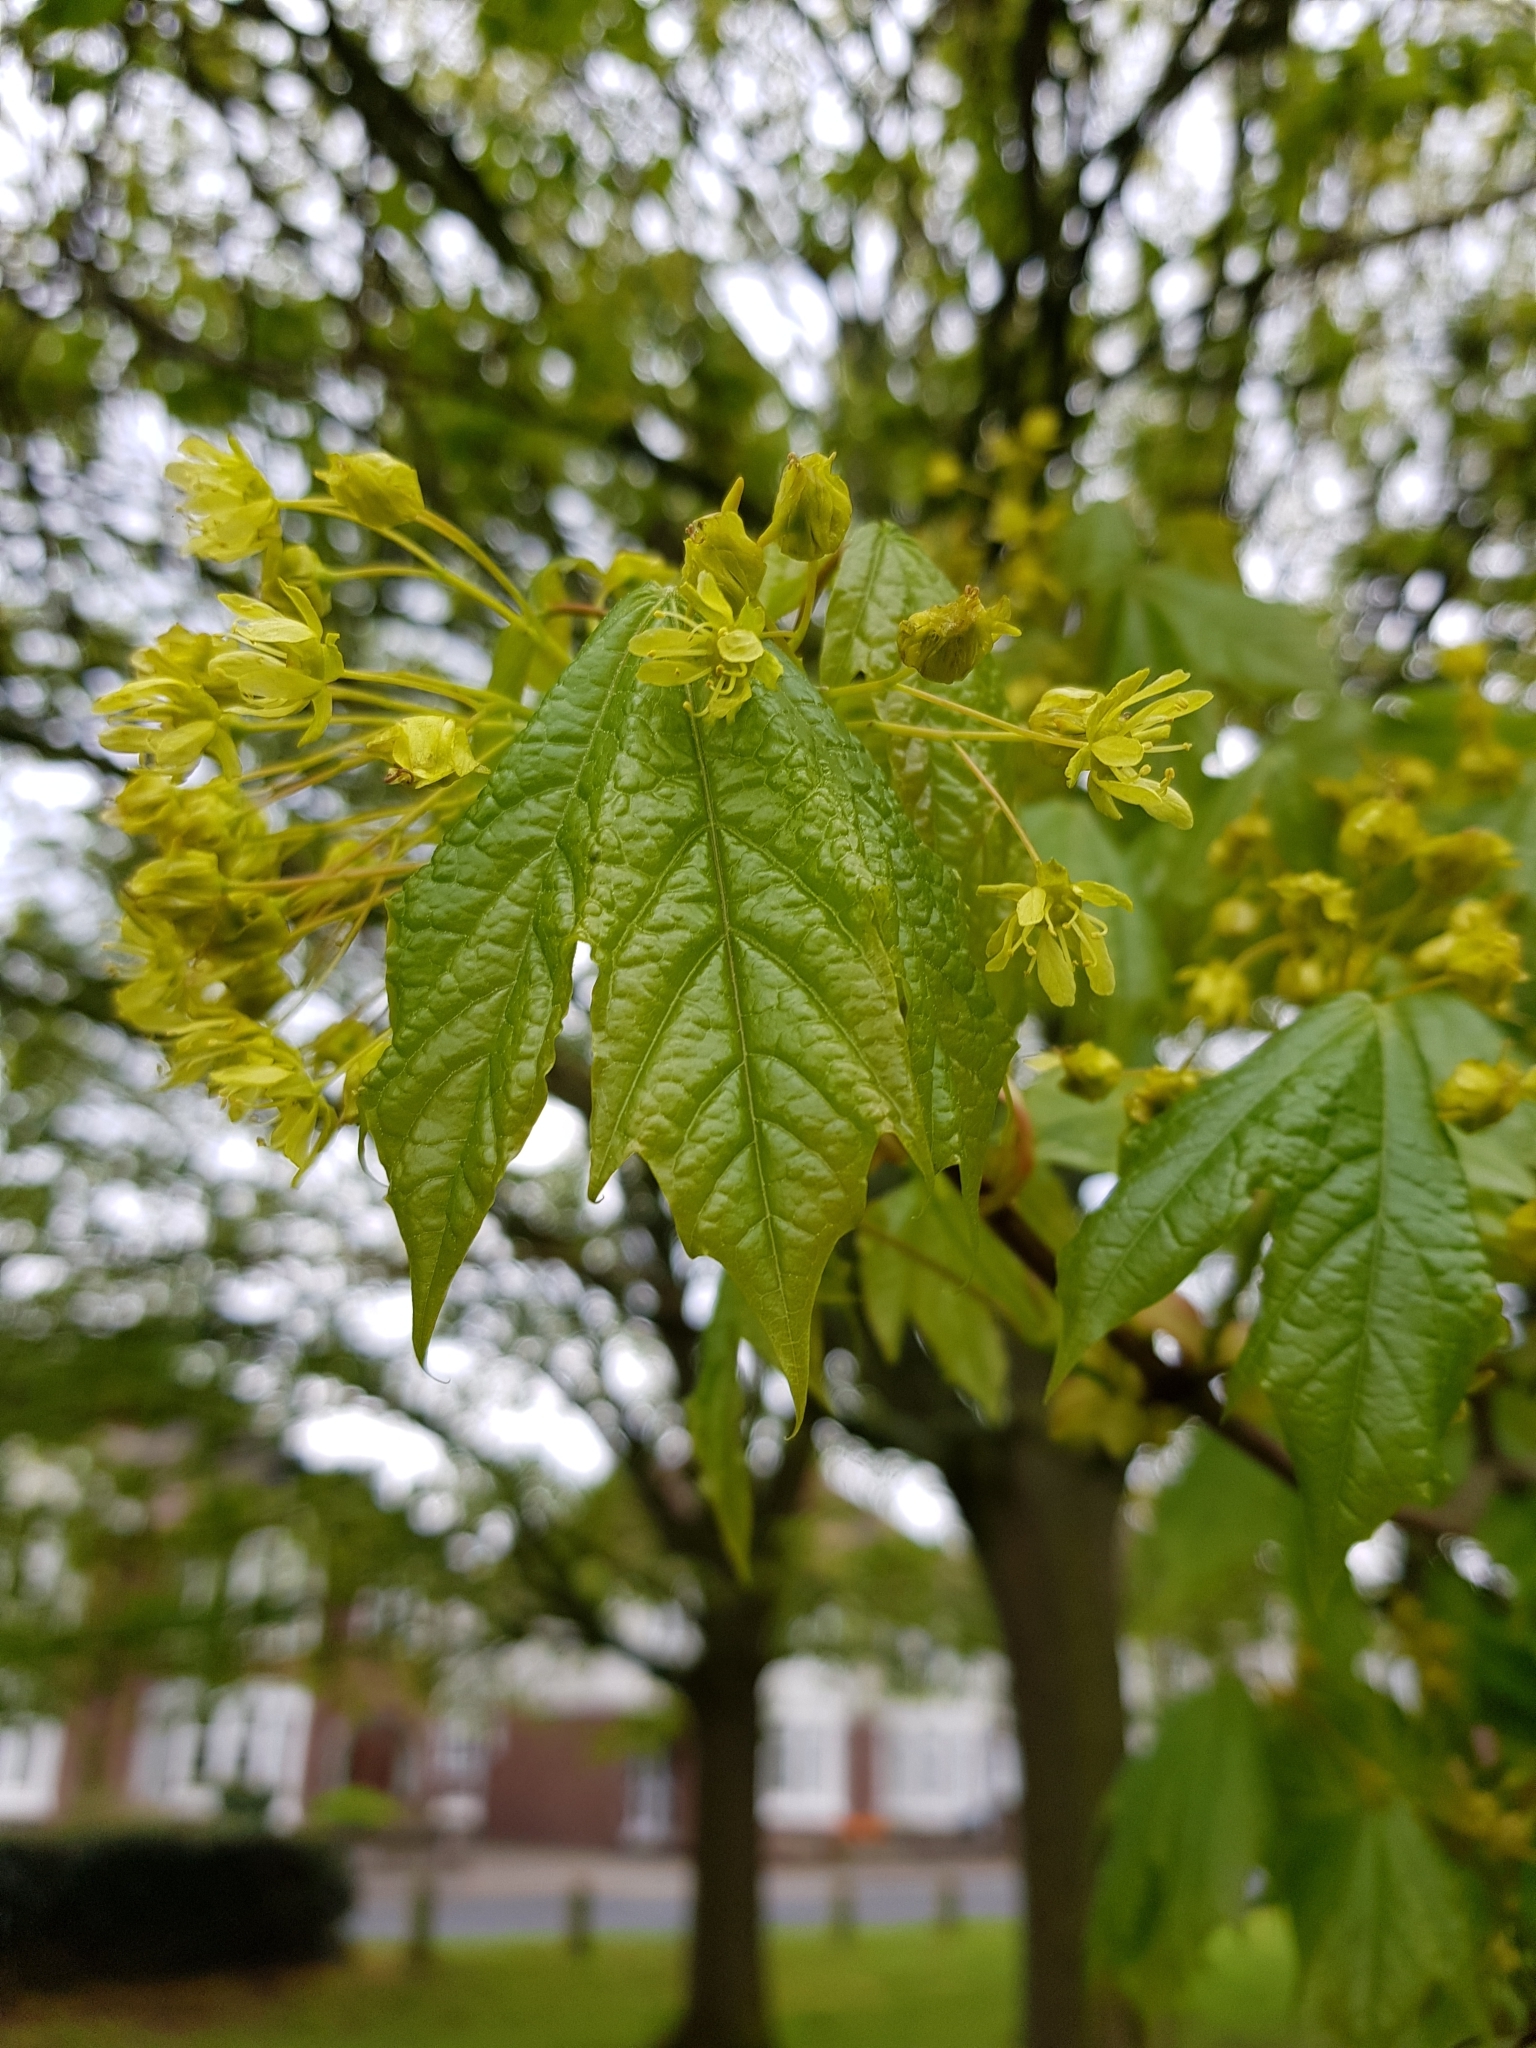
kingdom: Plantae
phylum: Tracheophyta
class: Magnoliopsida
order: Sapindales
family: Sapindaceae
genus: Acer
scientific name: Acer platanoides
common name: Norway maple
